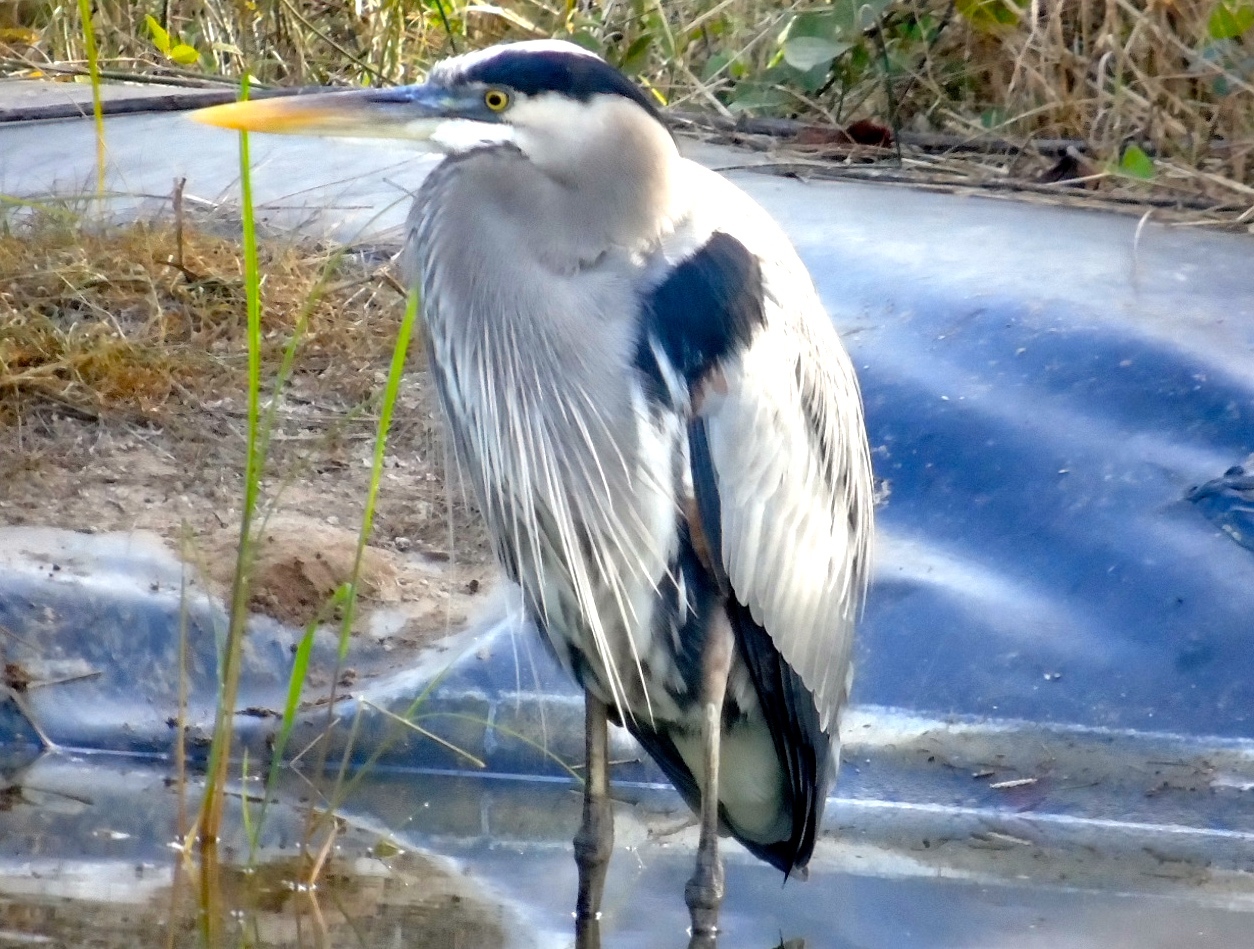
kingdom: Animalia
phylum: Chordata
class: Aves
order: Pelecaniformes
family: Ardeidae
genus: Ardea
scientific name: Ardea herodias
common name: Great blue heron
